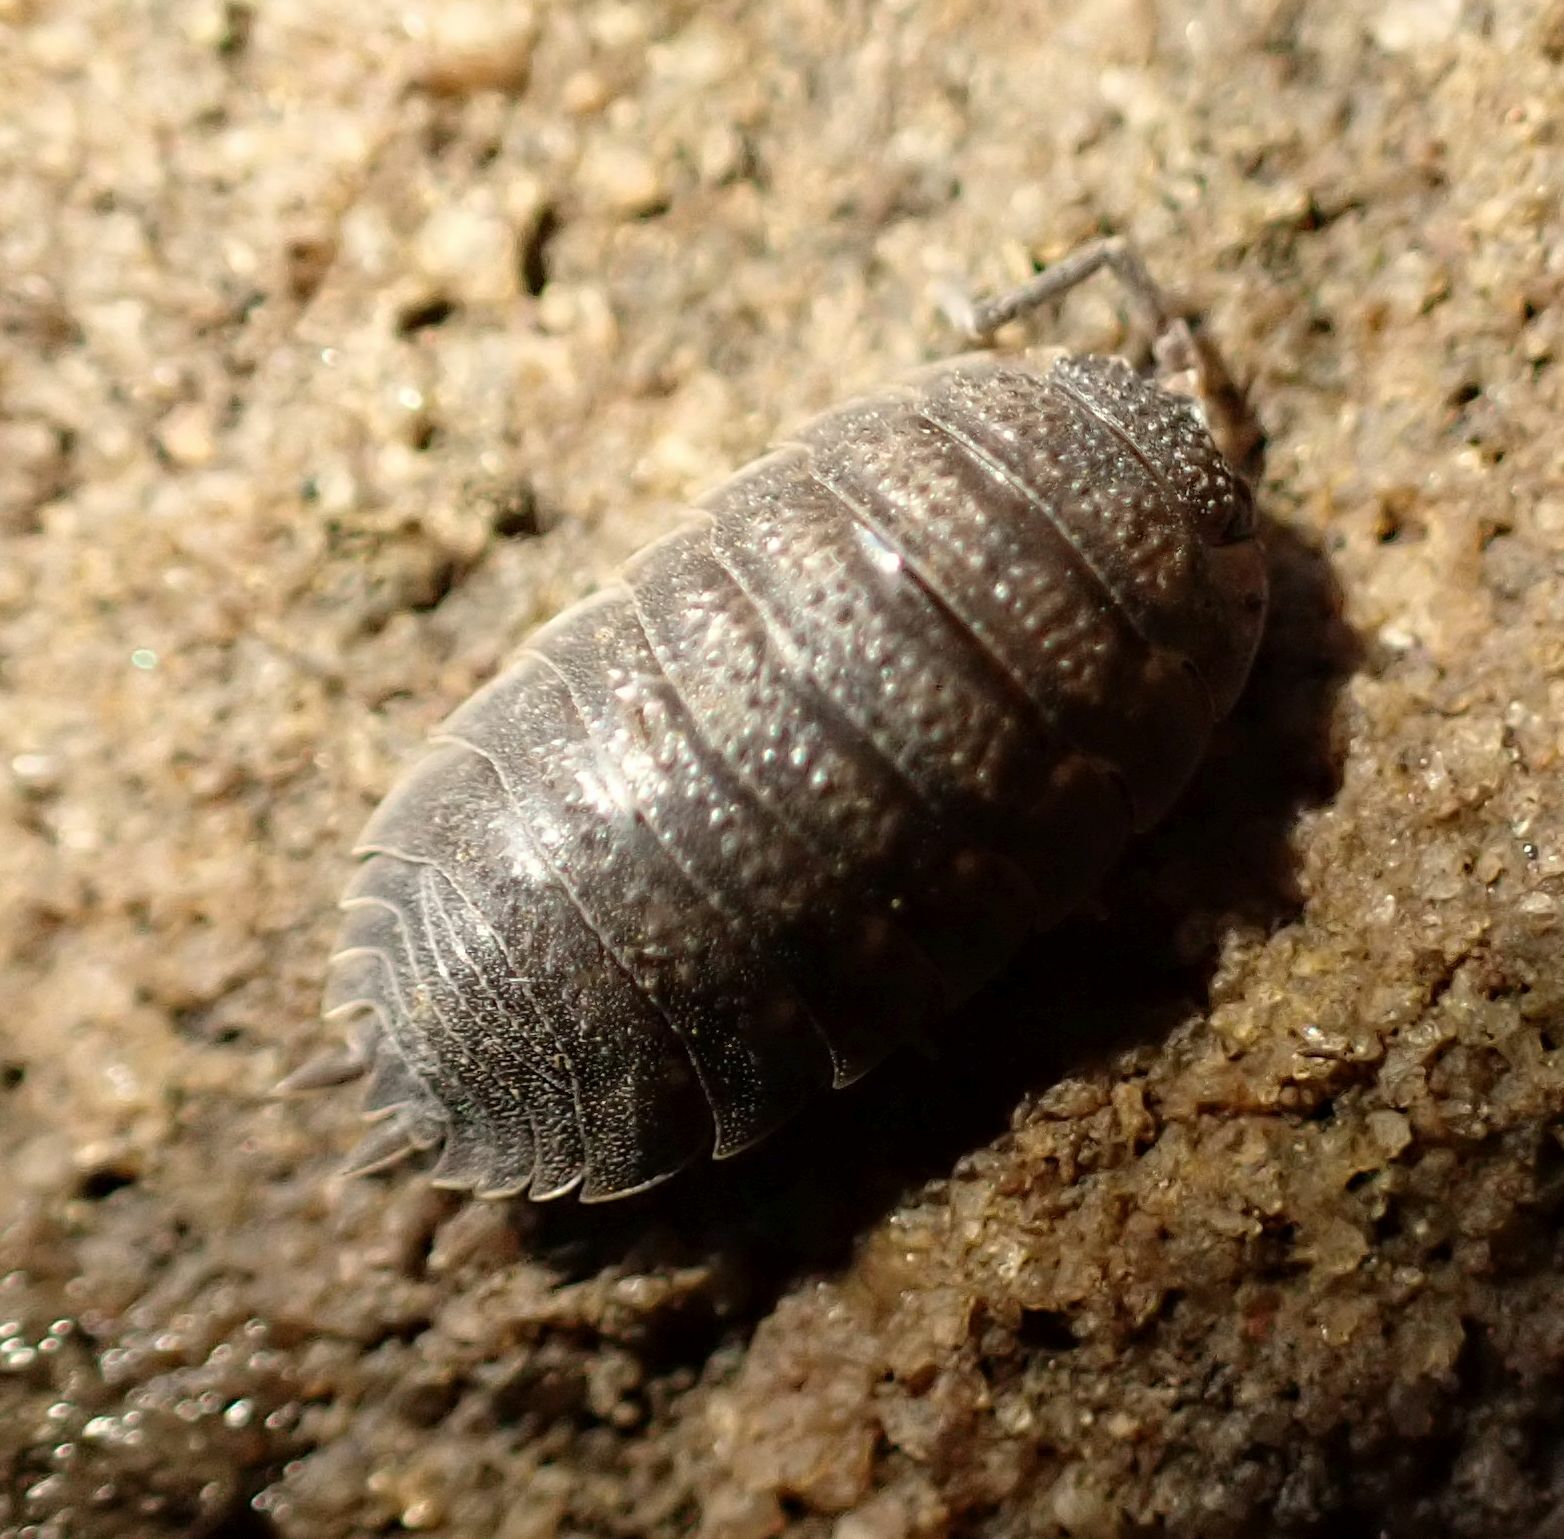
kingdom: Animalia
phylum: Arthropoda
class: Malacostraca
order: Isopoda
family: Porcellionidae
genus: Porcellio
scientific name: Porcellio scaber
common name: Common rough woodlouse
